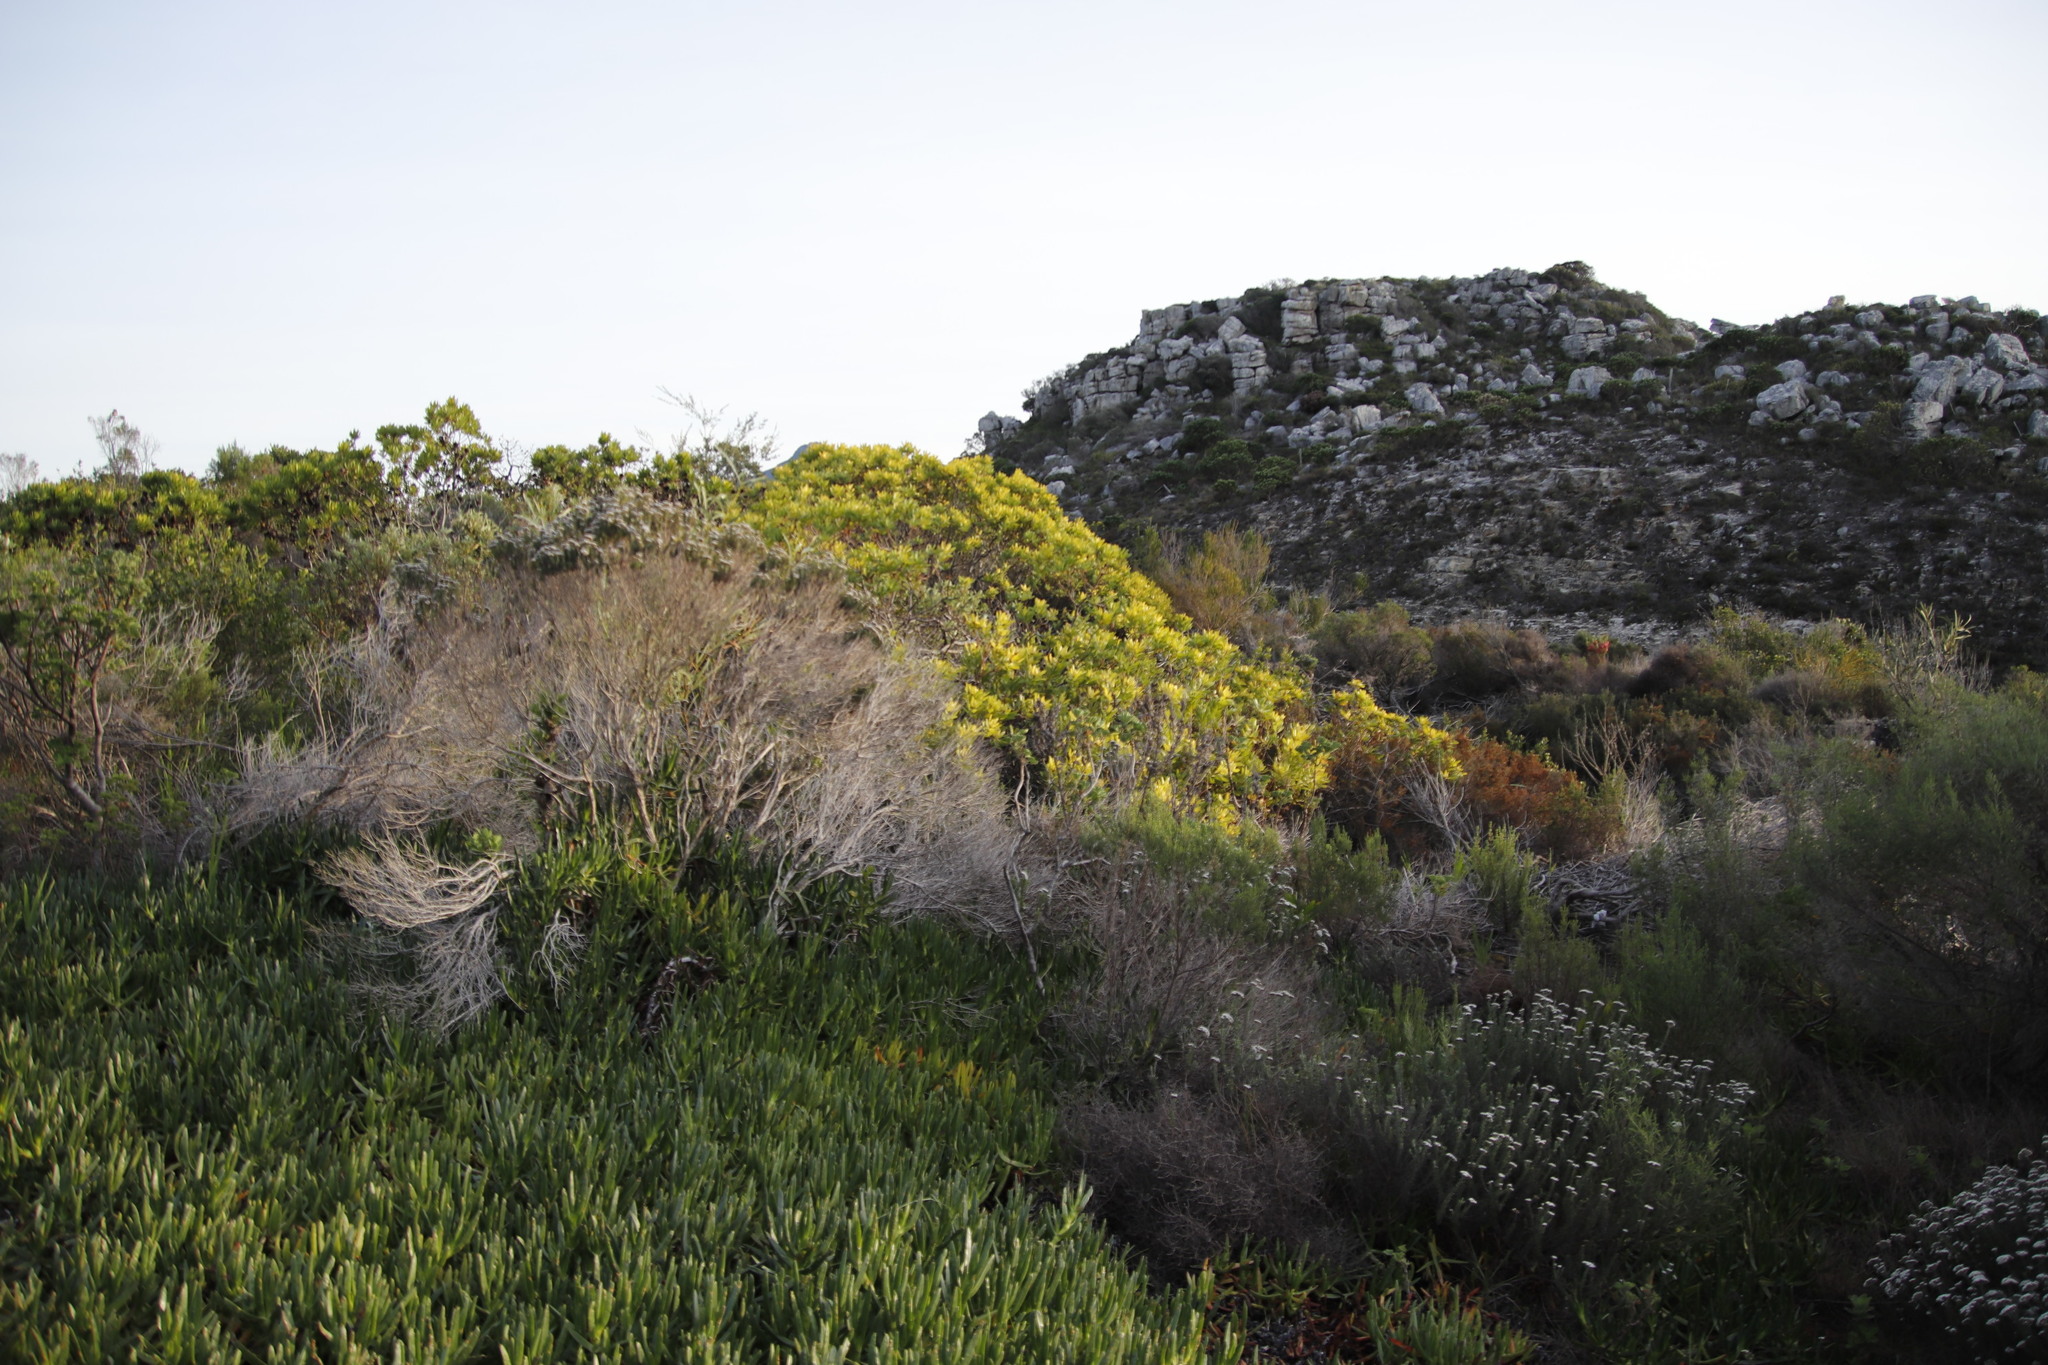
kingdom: Plantae
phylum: Tracheophyta
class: Magnoliopsida
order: Proteales
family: Proteaceae
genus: Leucadendron
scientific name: Leucadendron laureolum
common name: Golden sunshinebush
